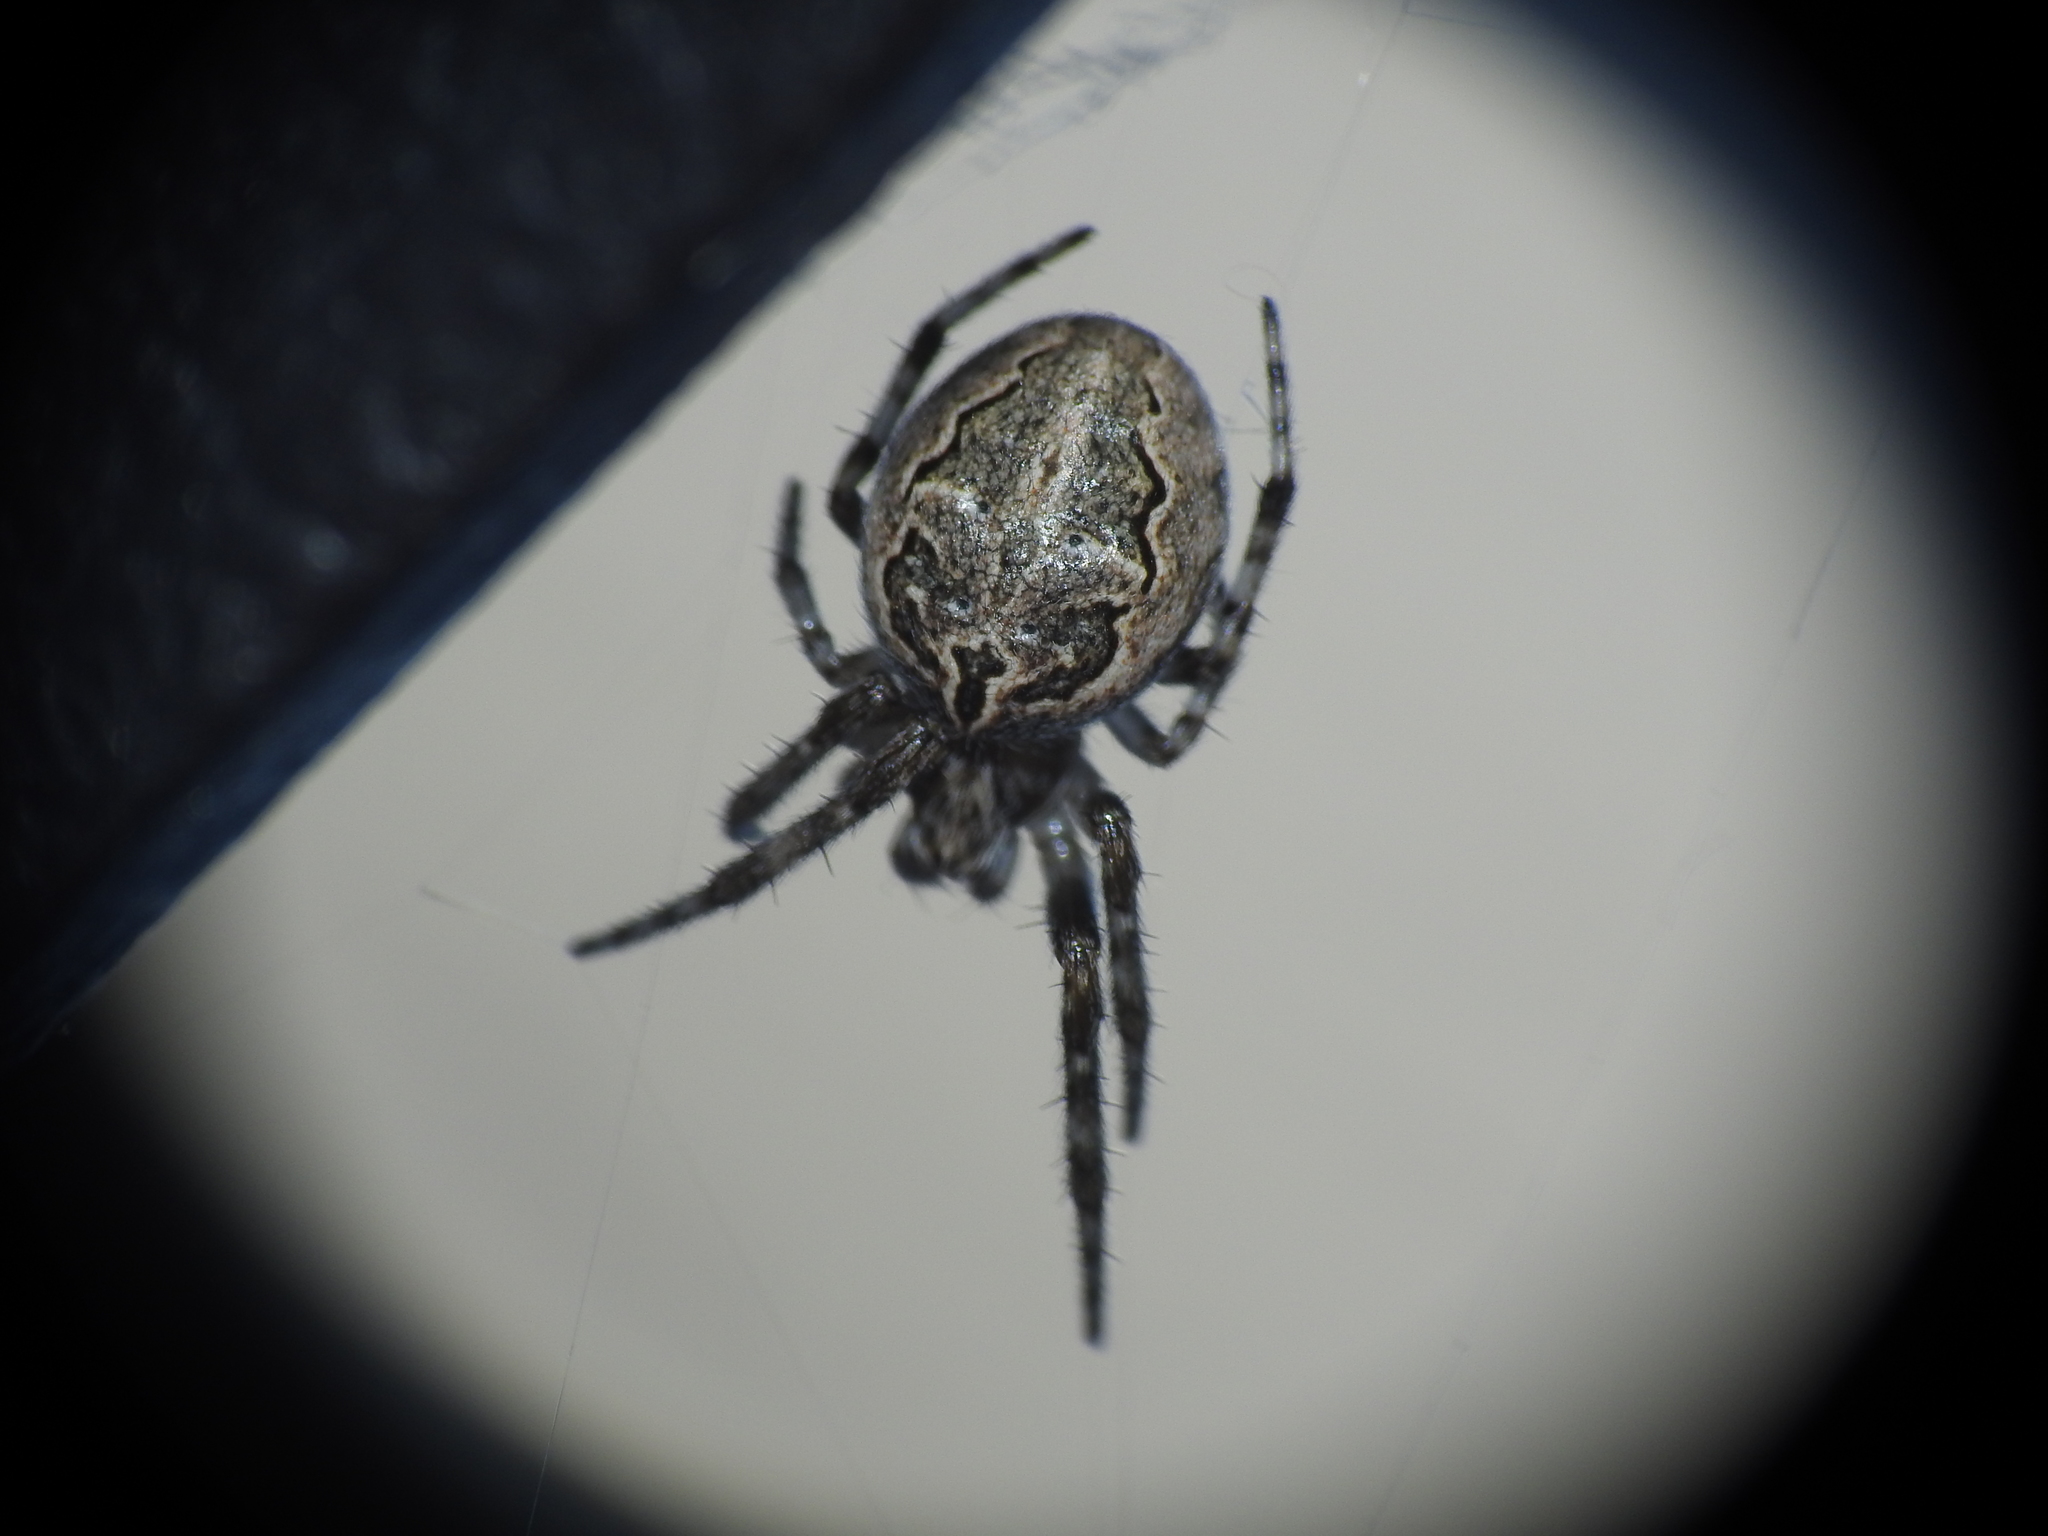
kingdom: Animalia
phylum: Arthropoda
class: Arachnida
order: Araneae
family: Araneidae
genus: Larinioides
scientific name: Larinioides sclopetarius
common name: Bridge orbweaver
